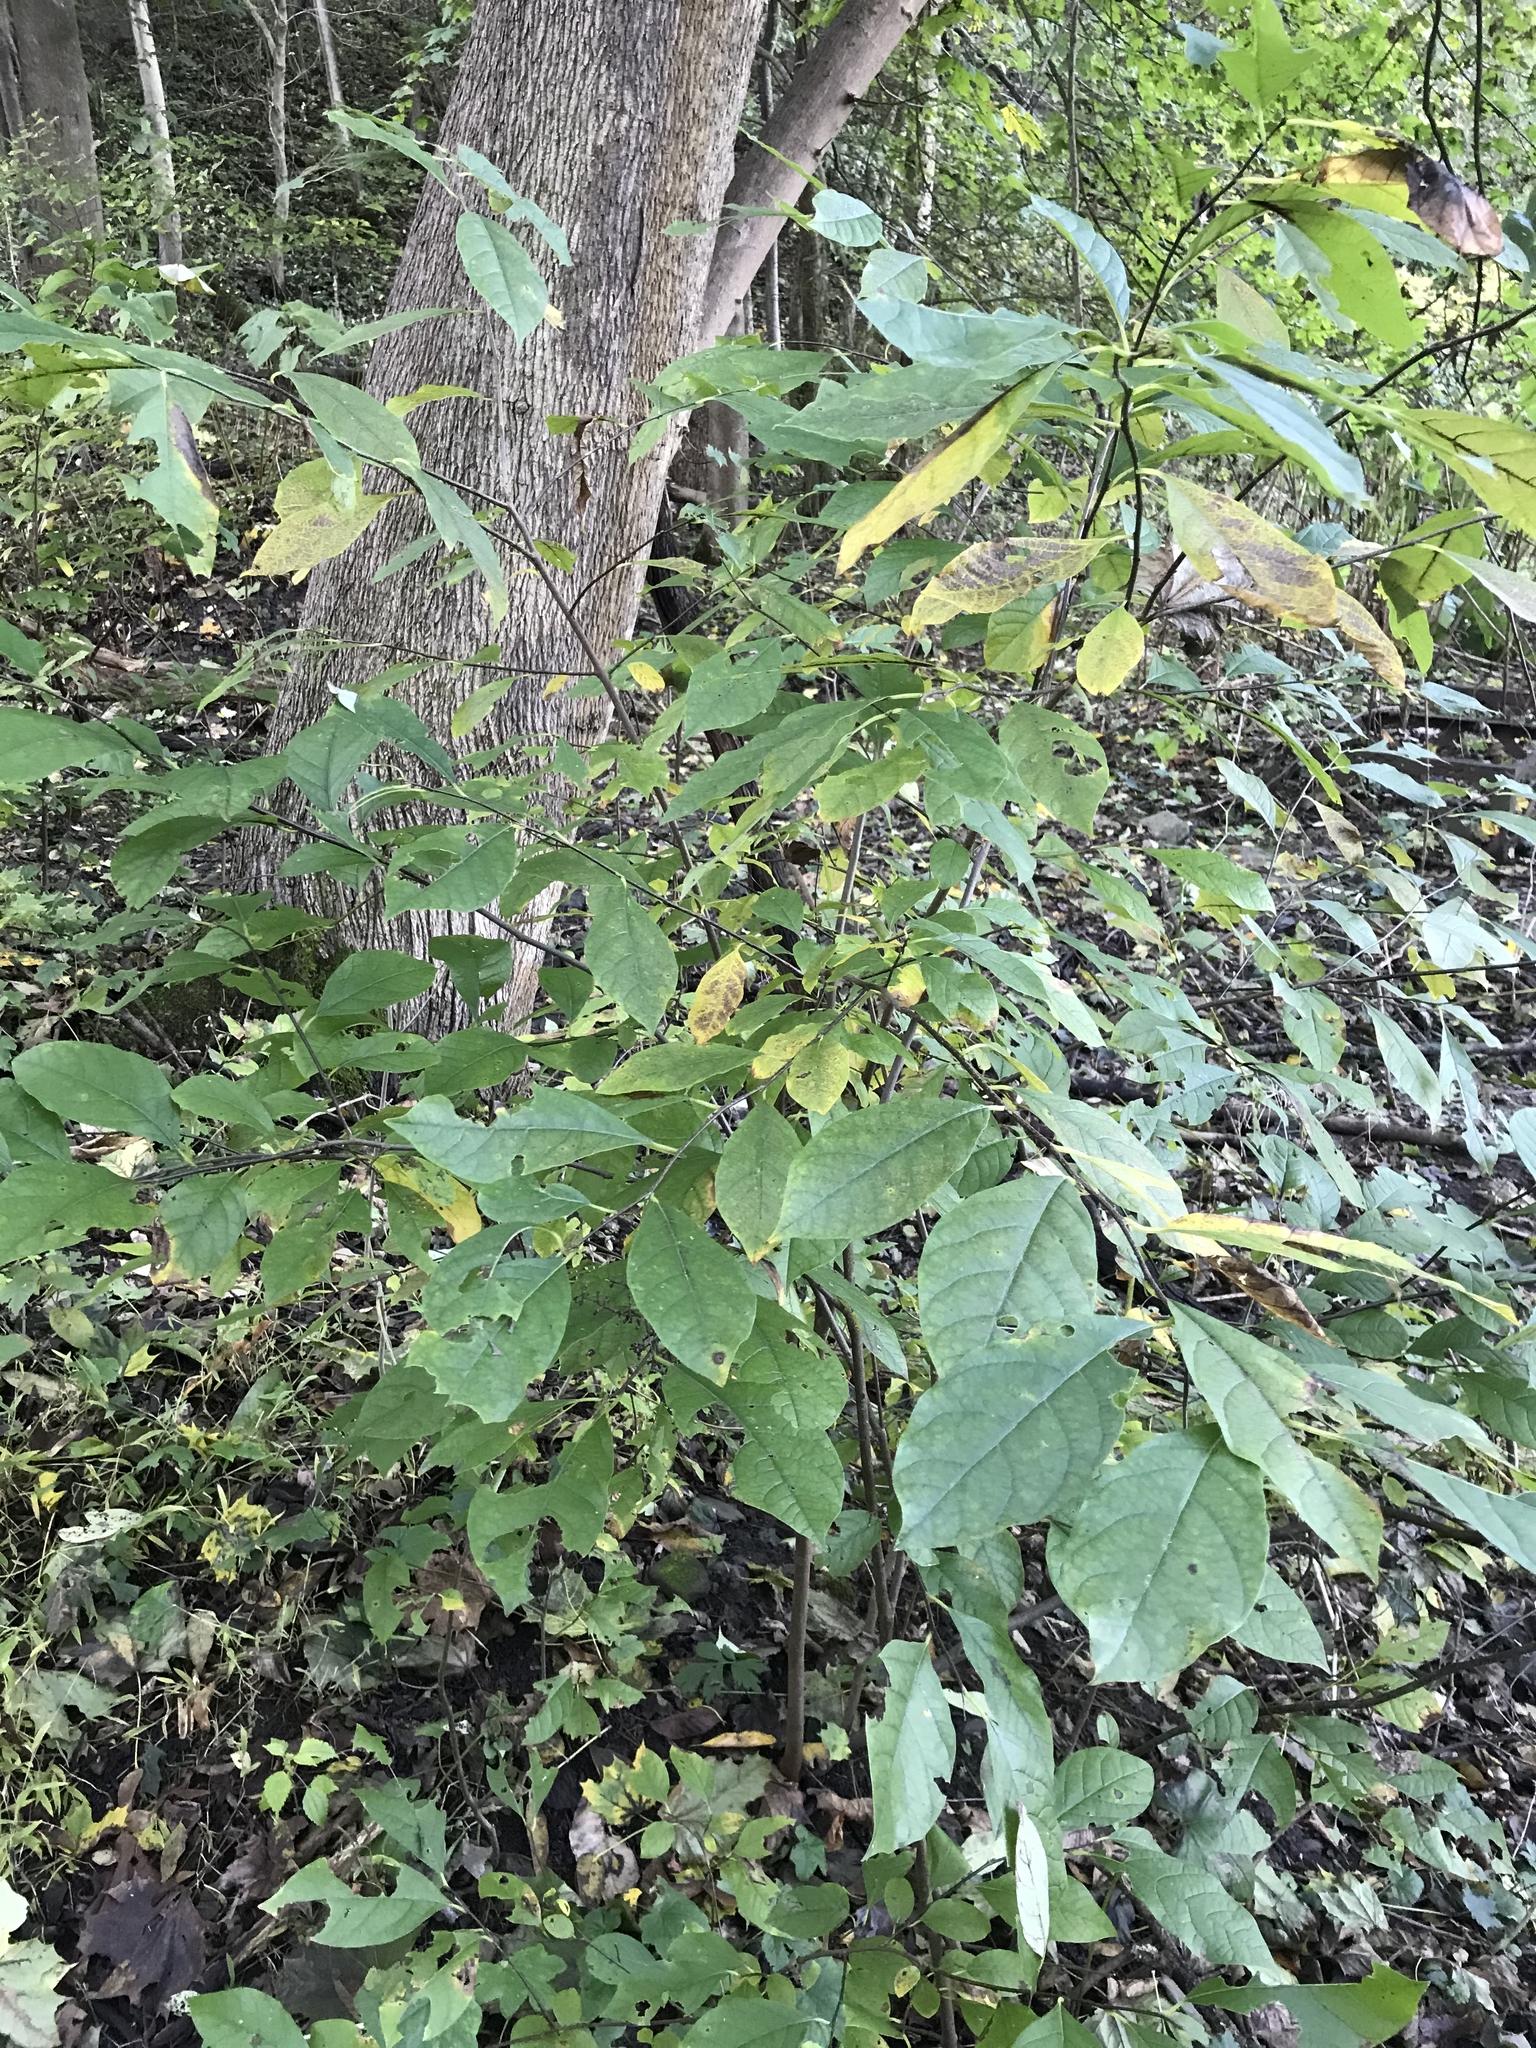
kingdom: Plantae
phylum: Tracheophyta
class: Magnoliopsida
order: Laurales
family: Lauraceae
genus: Lindera
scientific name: Lindera benzoin
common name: Spicebush
